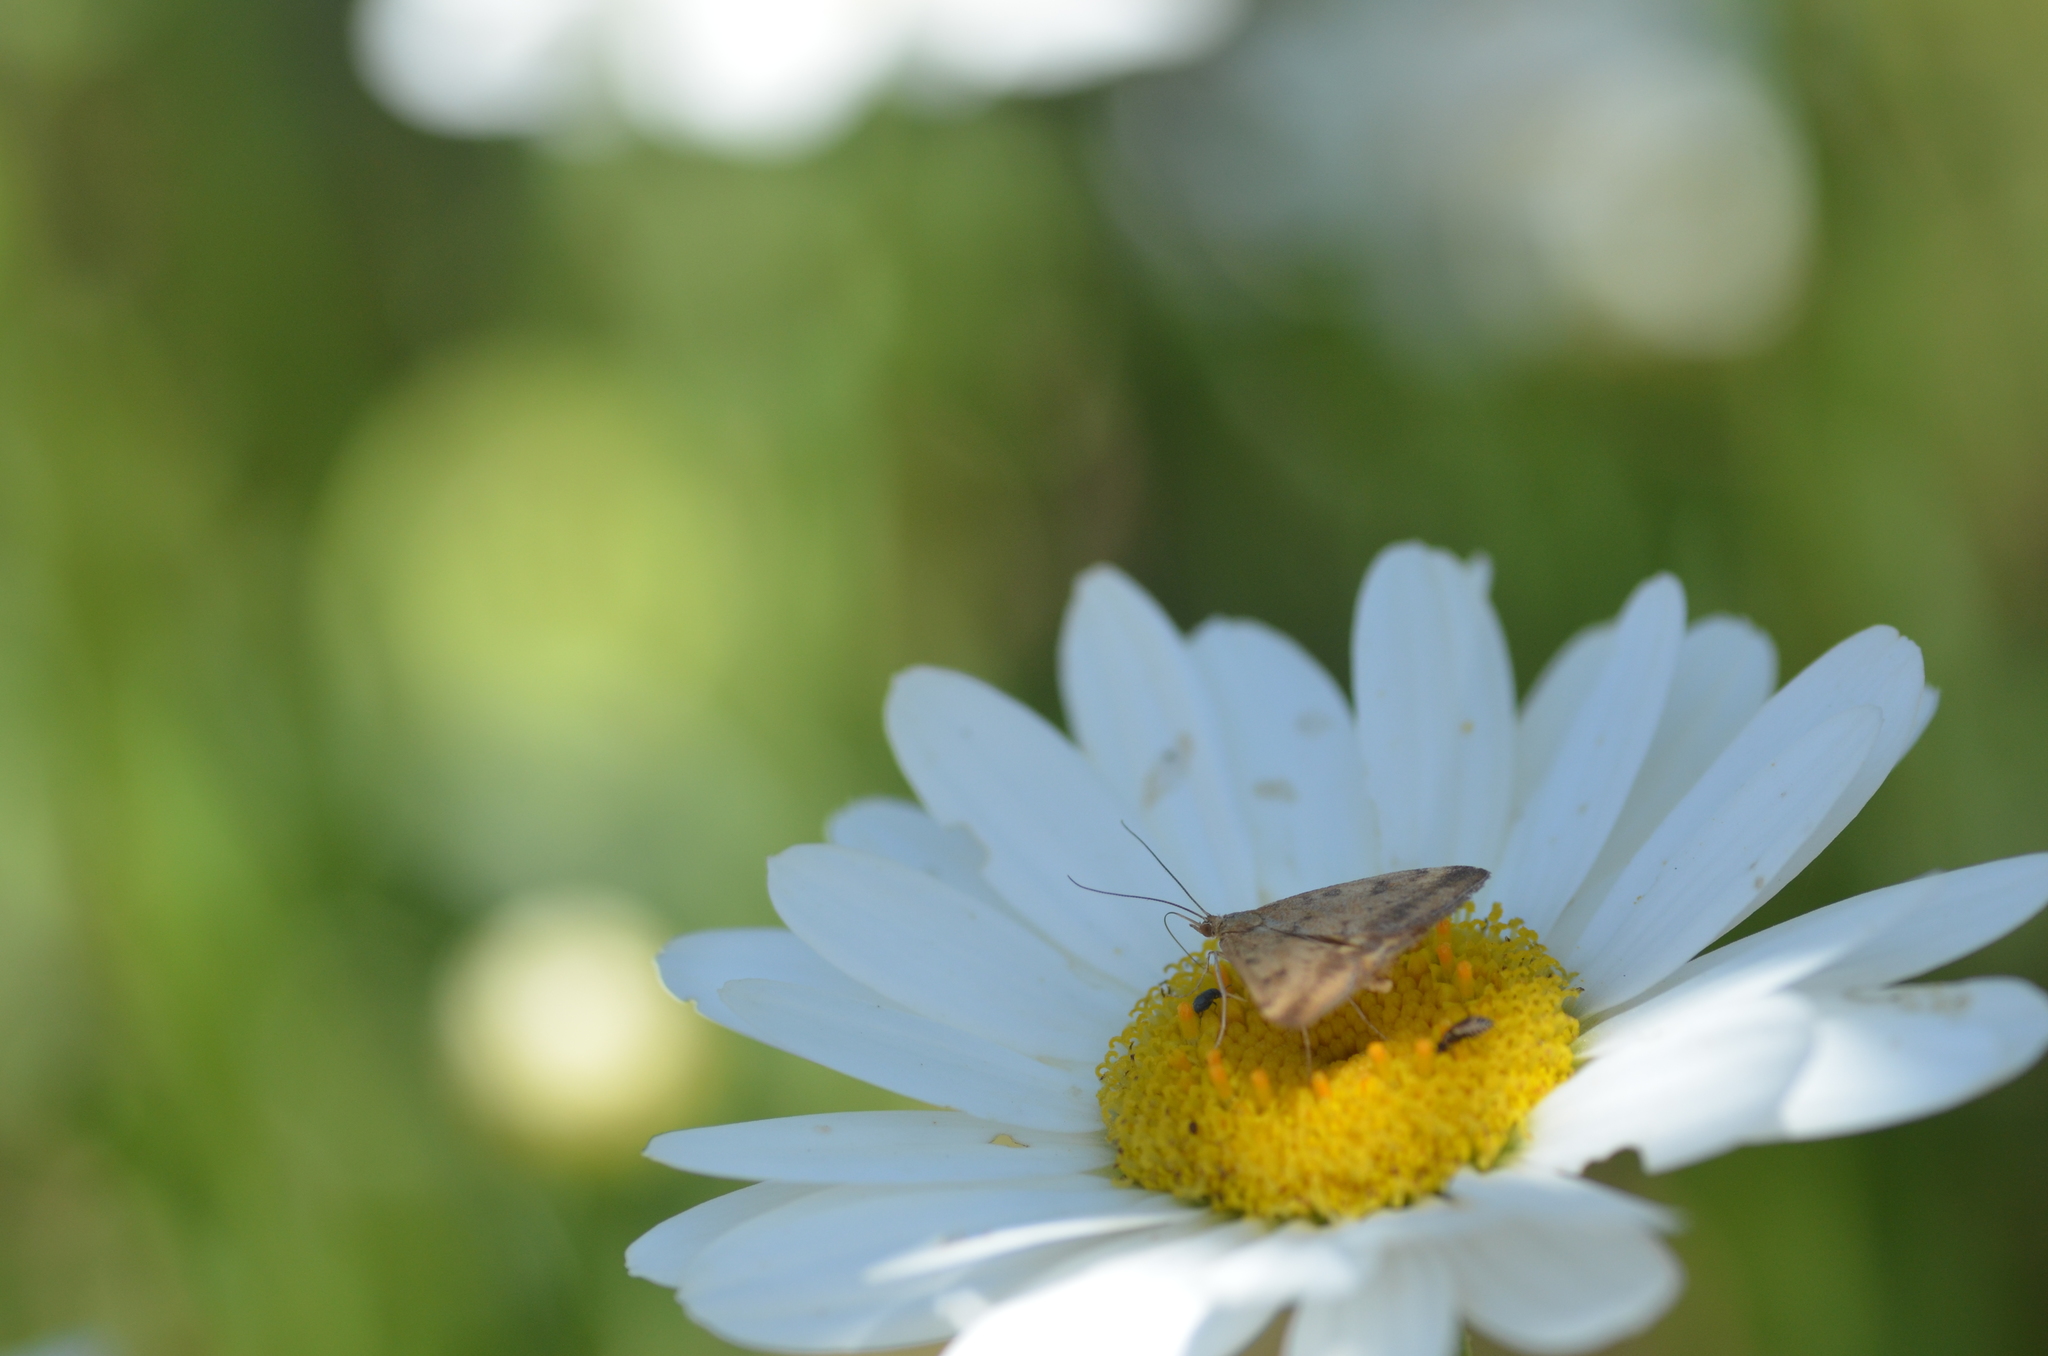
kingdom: Animalia
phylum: Arthropoda
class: Insecta
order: Lepidoptera
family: Crambidae
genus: Pyrausta
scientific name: Pyrausta subsequalis
